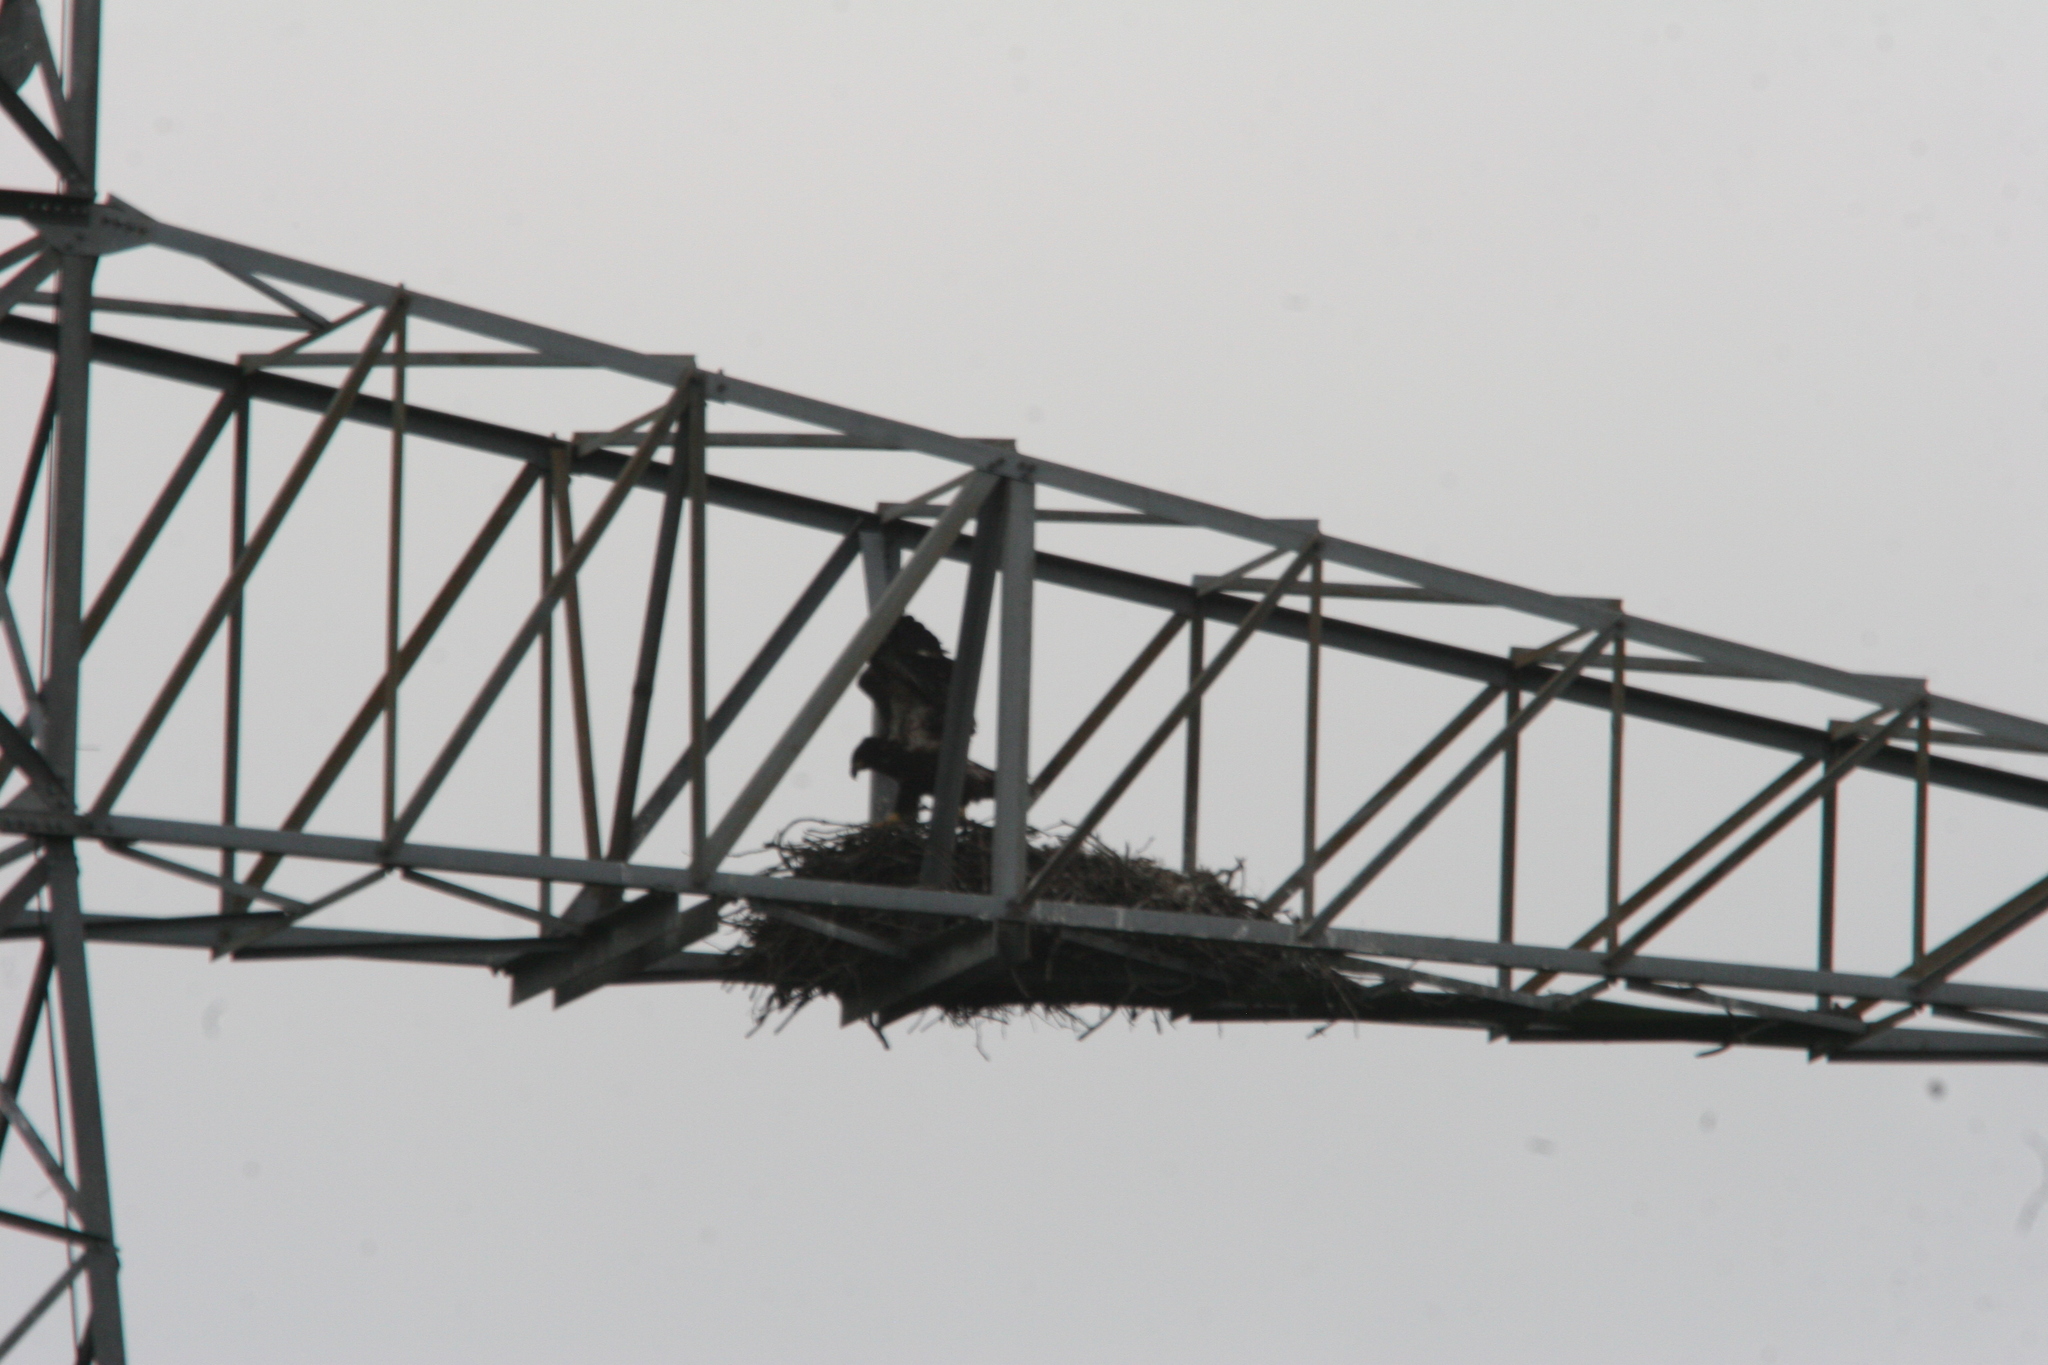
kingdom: Animalia
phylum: Chordata
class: Aves
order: Accipitriformes
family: Accipitridae
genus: Haliaeetus
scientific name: Haliaeetus leucocephalus
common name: Bald eagle
